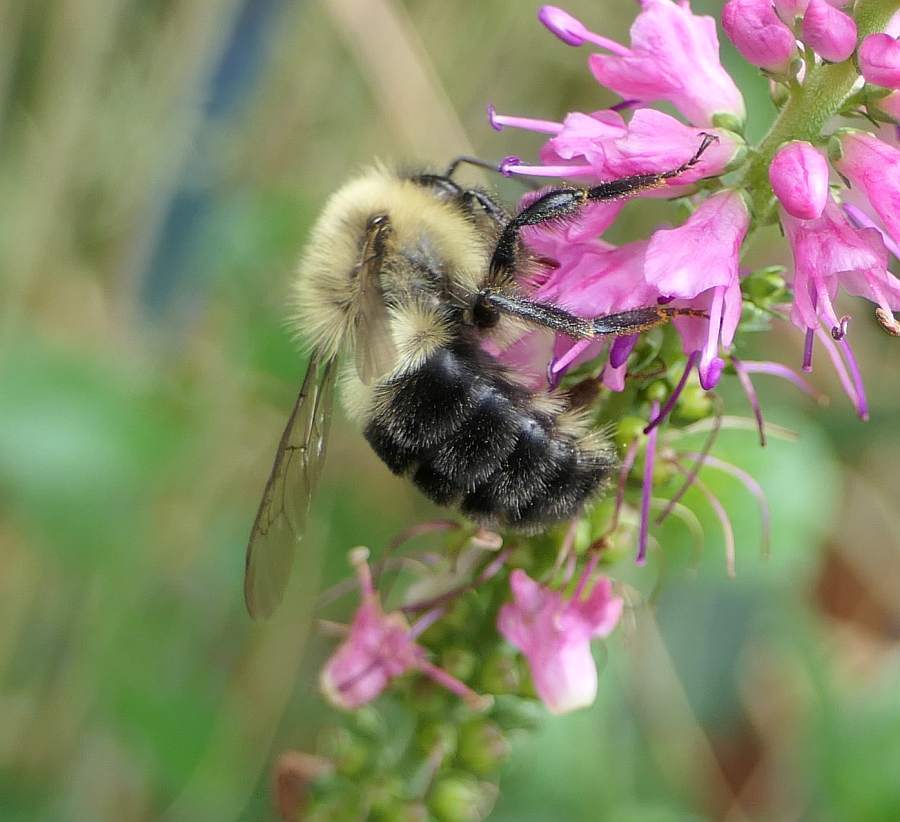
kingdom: Animalia
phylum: Arthropoda
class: Insecta
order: Hymenoptera
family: Apidae
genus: Bombus
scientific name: Bombus impatiens
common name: Common eastern bumble bee
